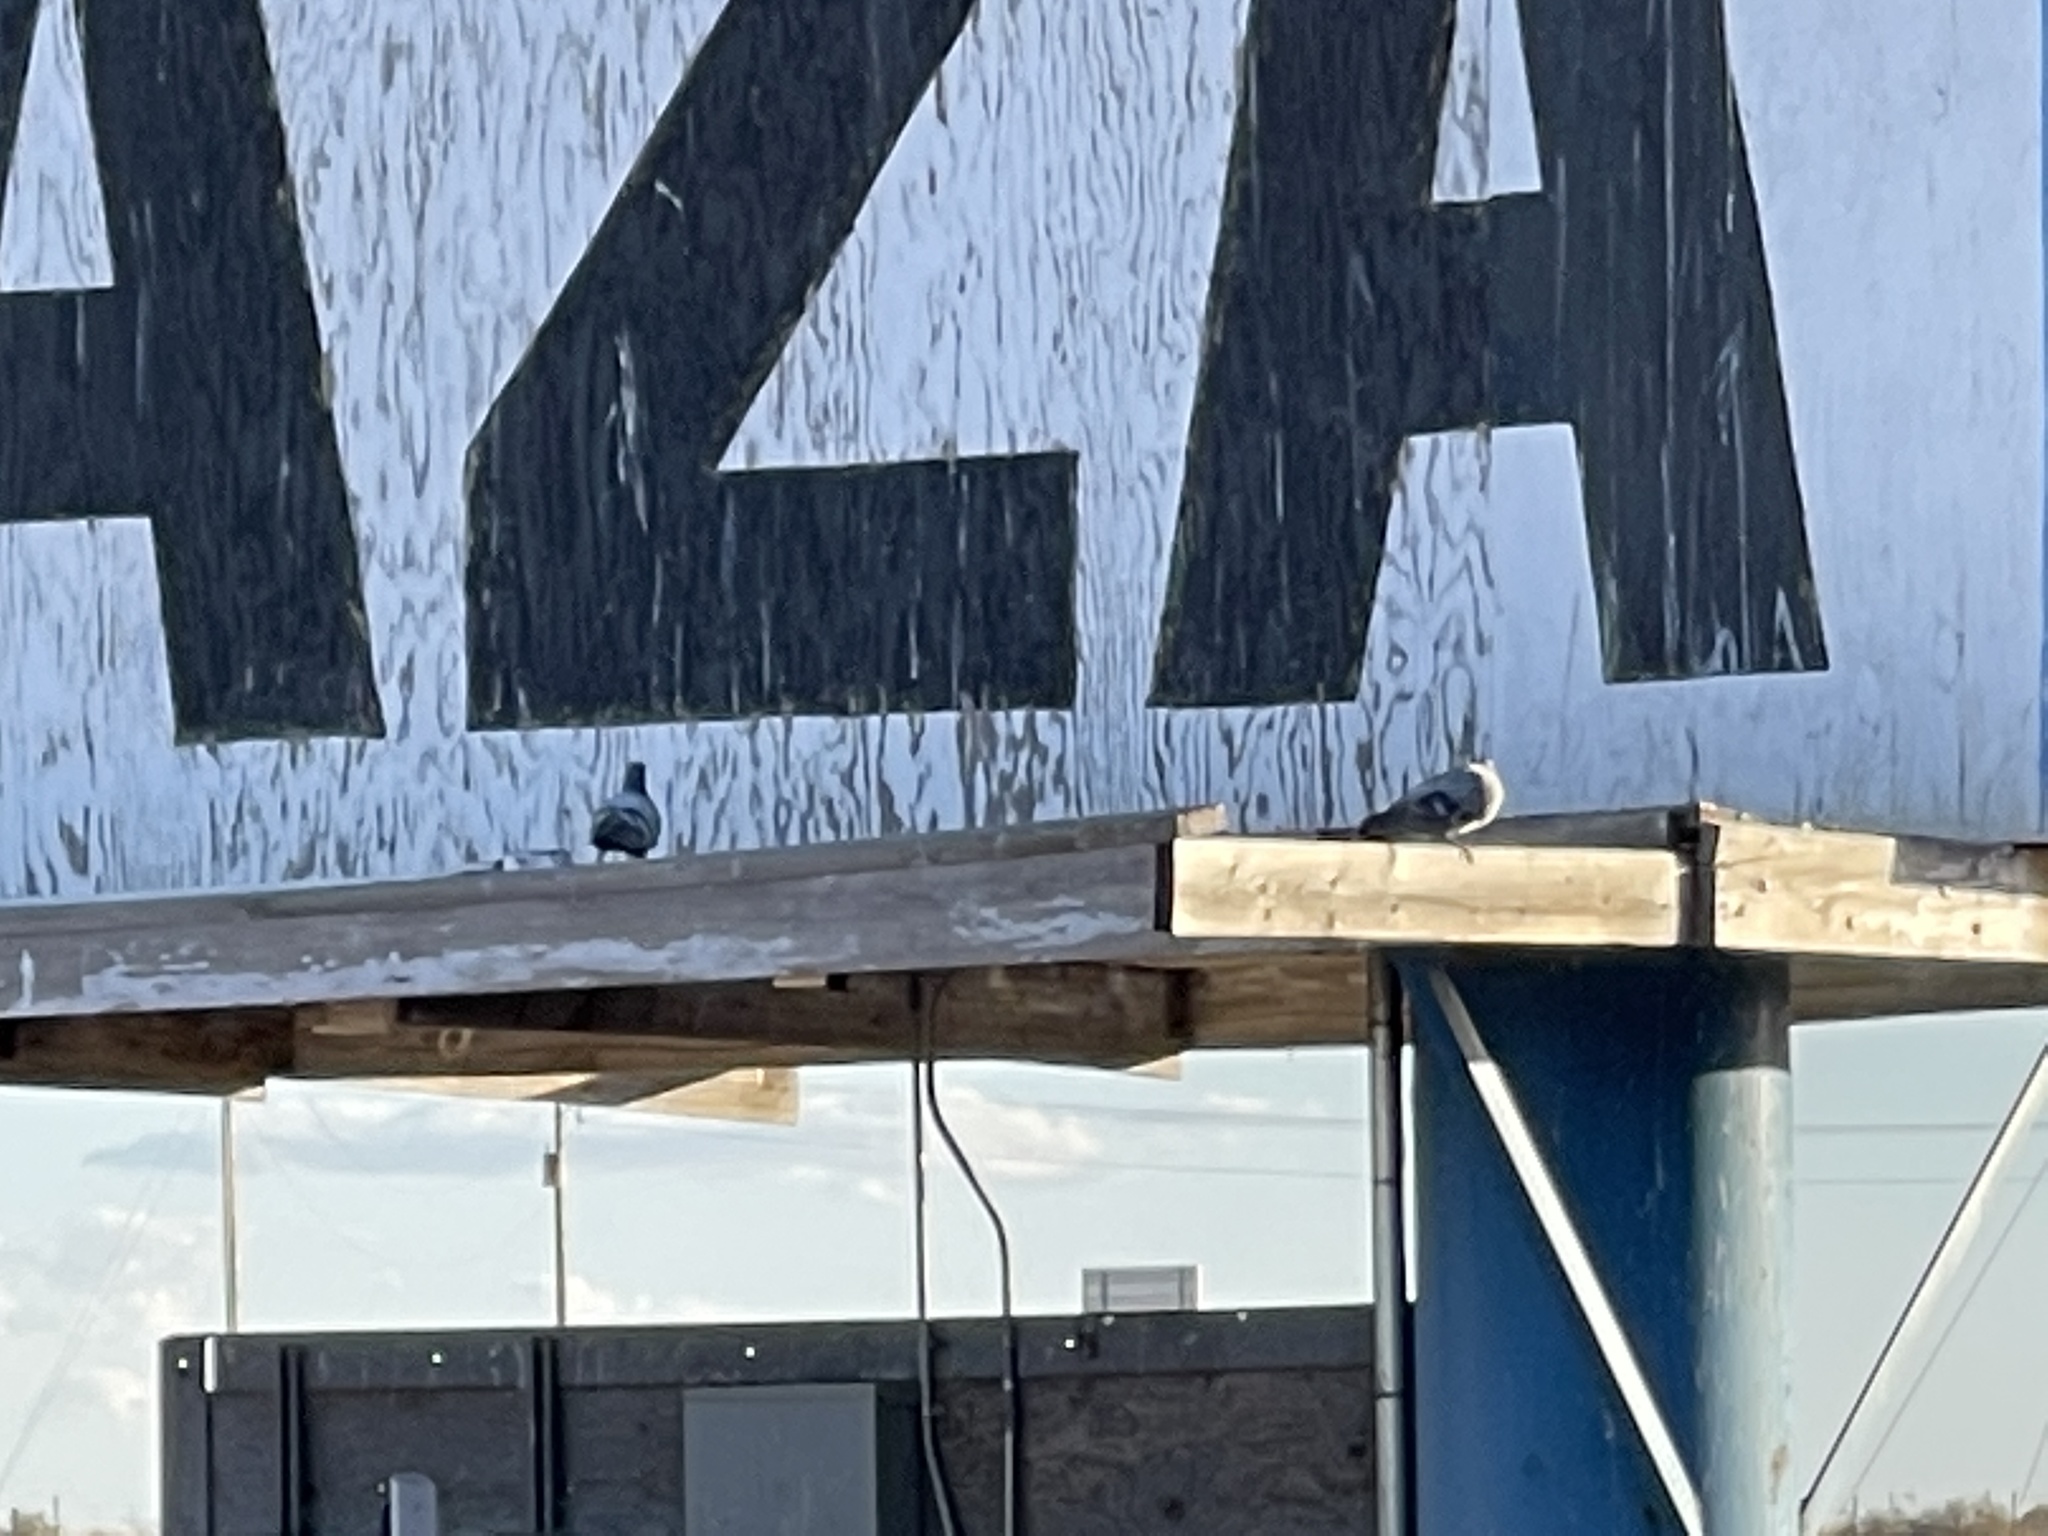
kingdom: Animalia
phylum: Chordata
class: Aves
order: Columbiformes
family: Columbidae
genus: Columba
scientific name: Columba livia
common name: Rock pigeon
